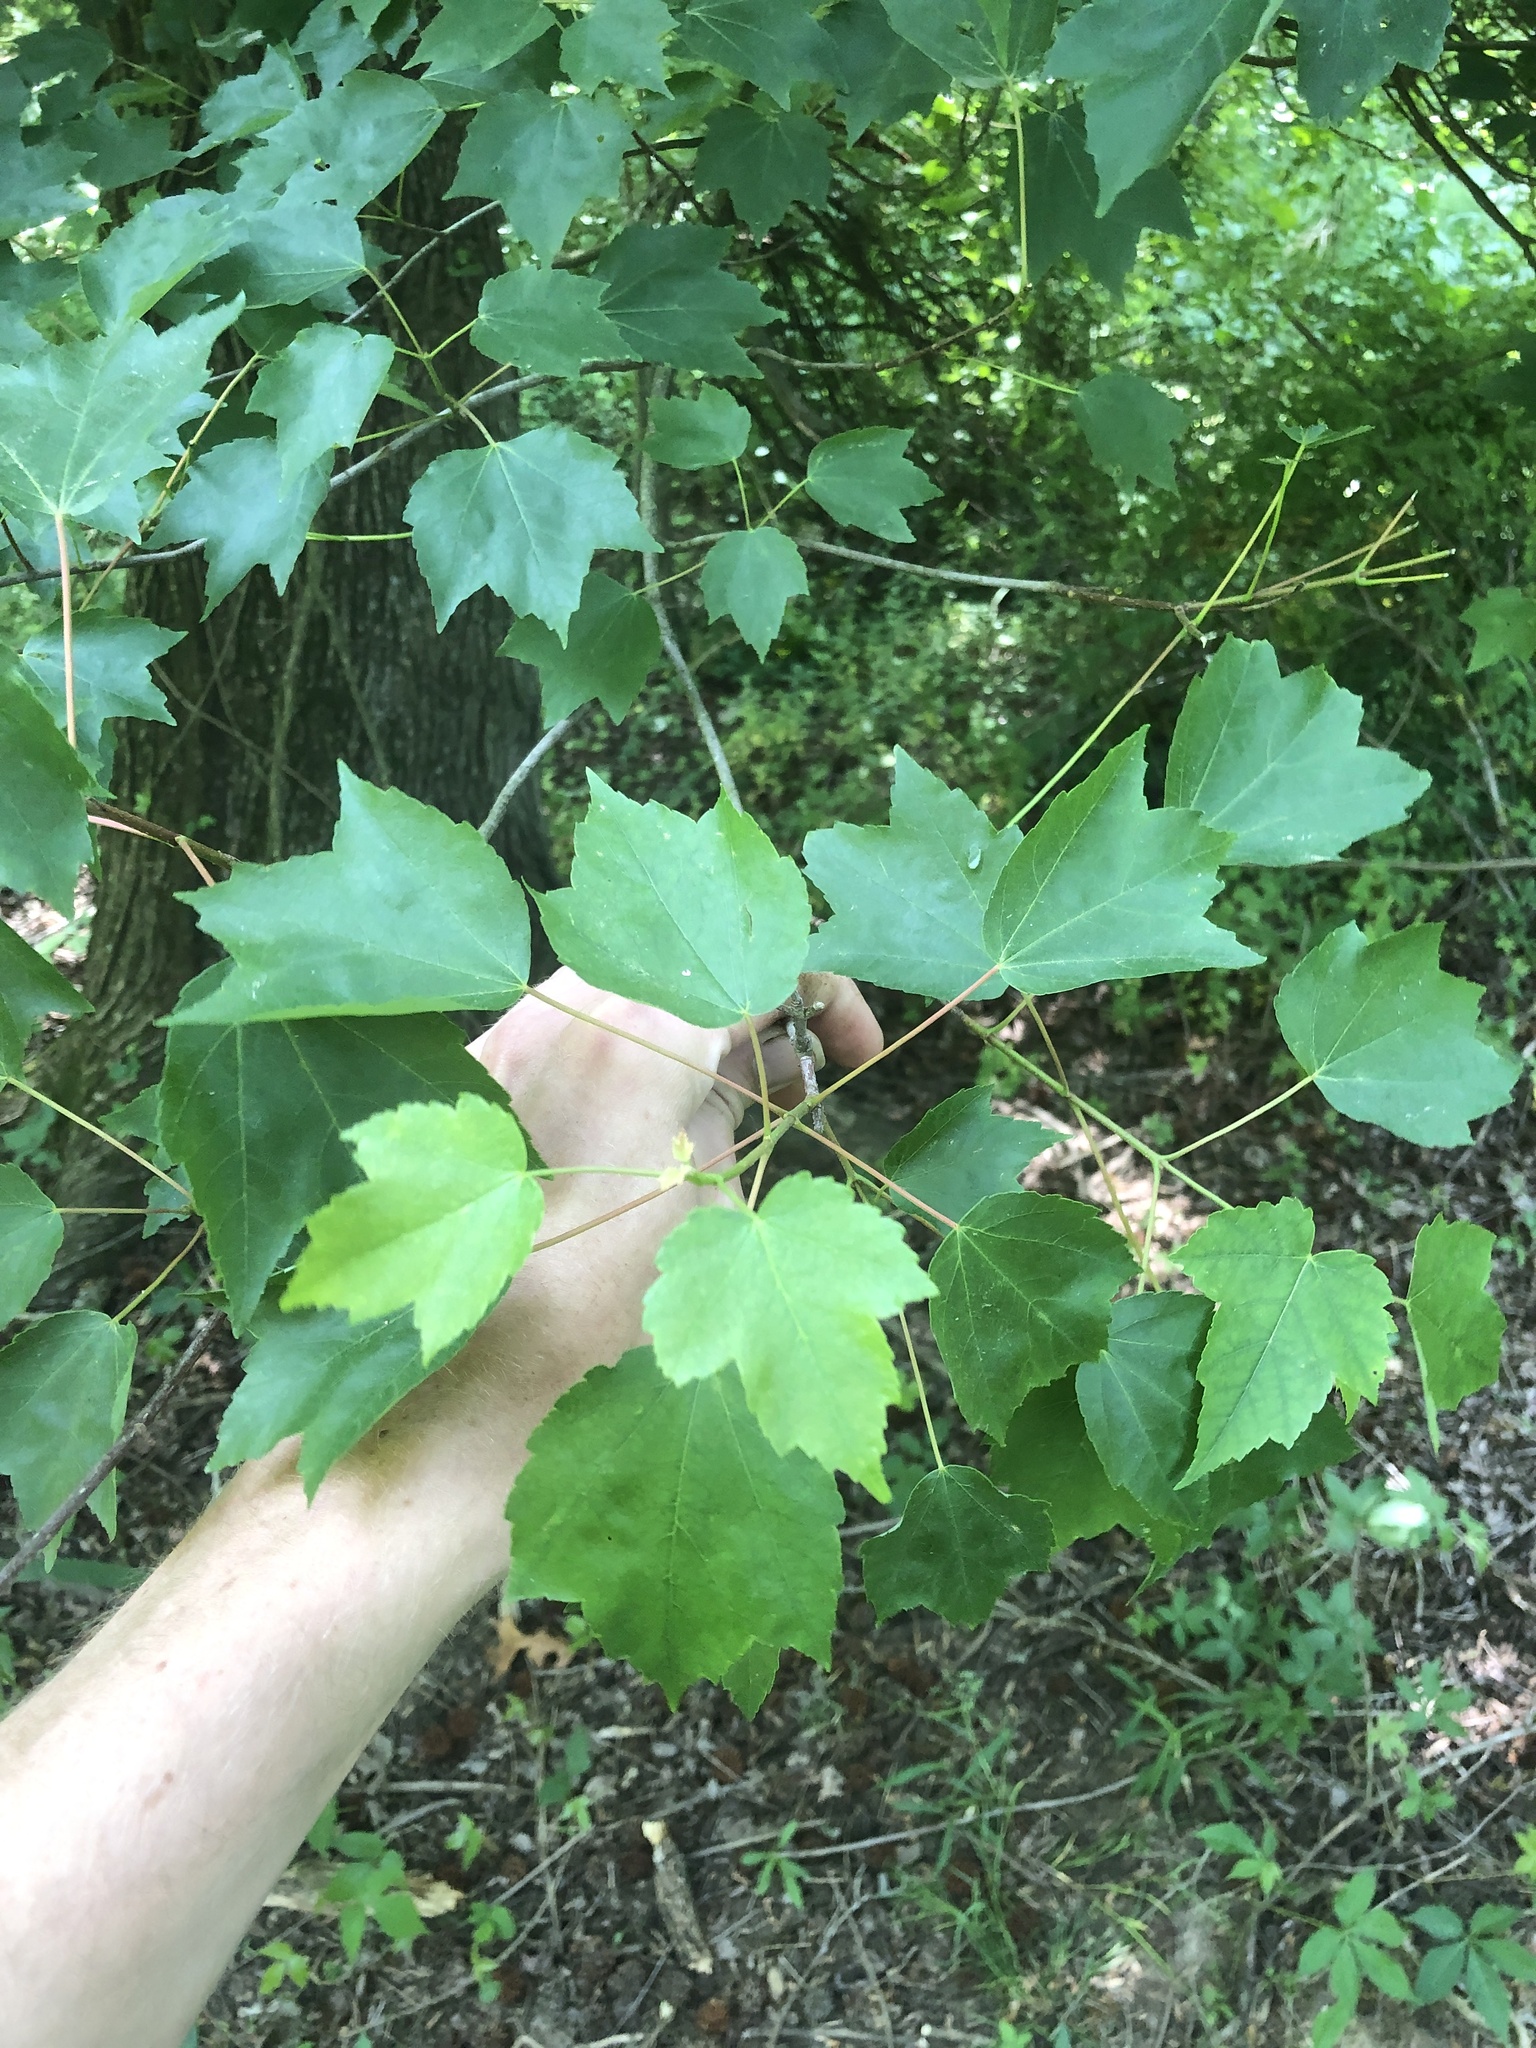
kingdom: Plantae
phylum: Tracheophyta
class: Magnoliopsida
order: Sapindales
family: Sapindaceae
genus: Acer
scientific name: Acer rubrum
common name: Red maple
